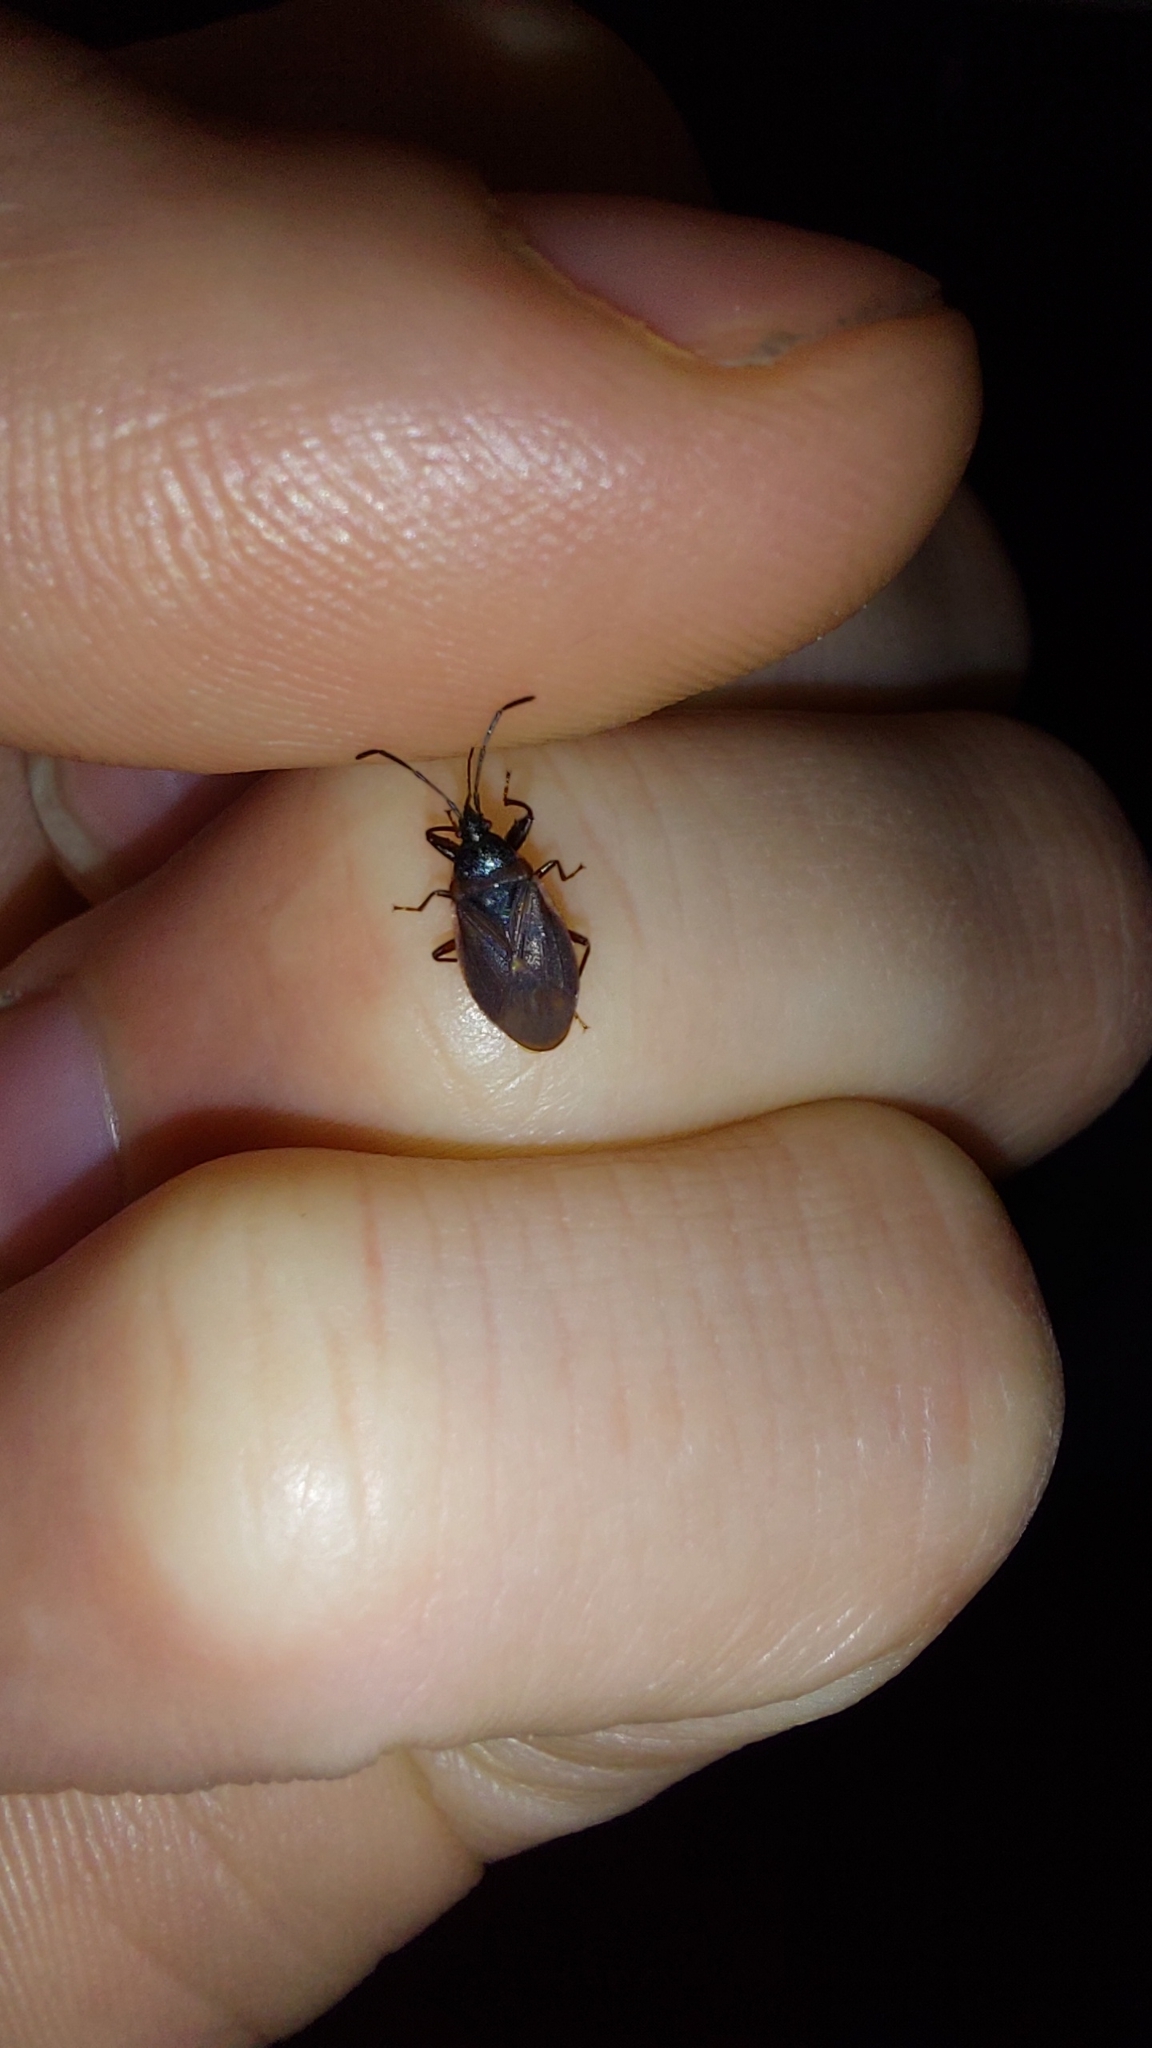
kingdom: Animalia
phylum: Arthropoda
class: Insecta
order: Hemiptera
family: Rhyparochromidae
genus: Gastrodes
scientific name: Gastrodes grossipes
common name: Pine cone bug
